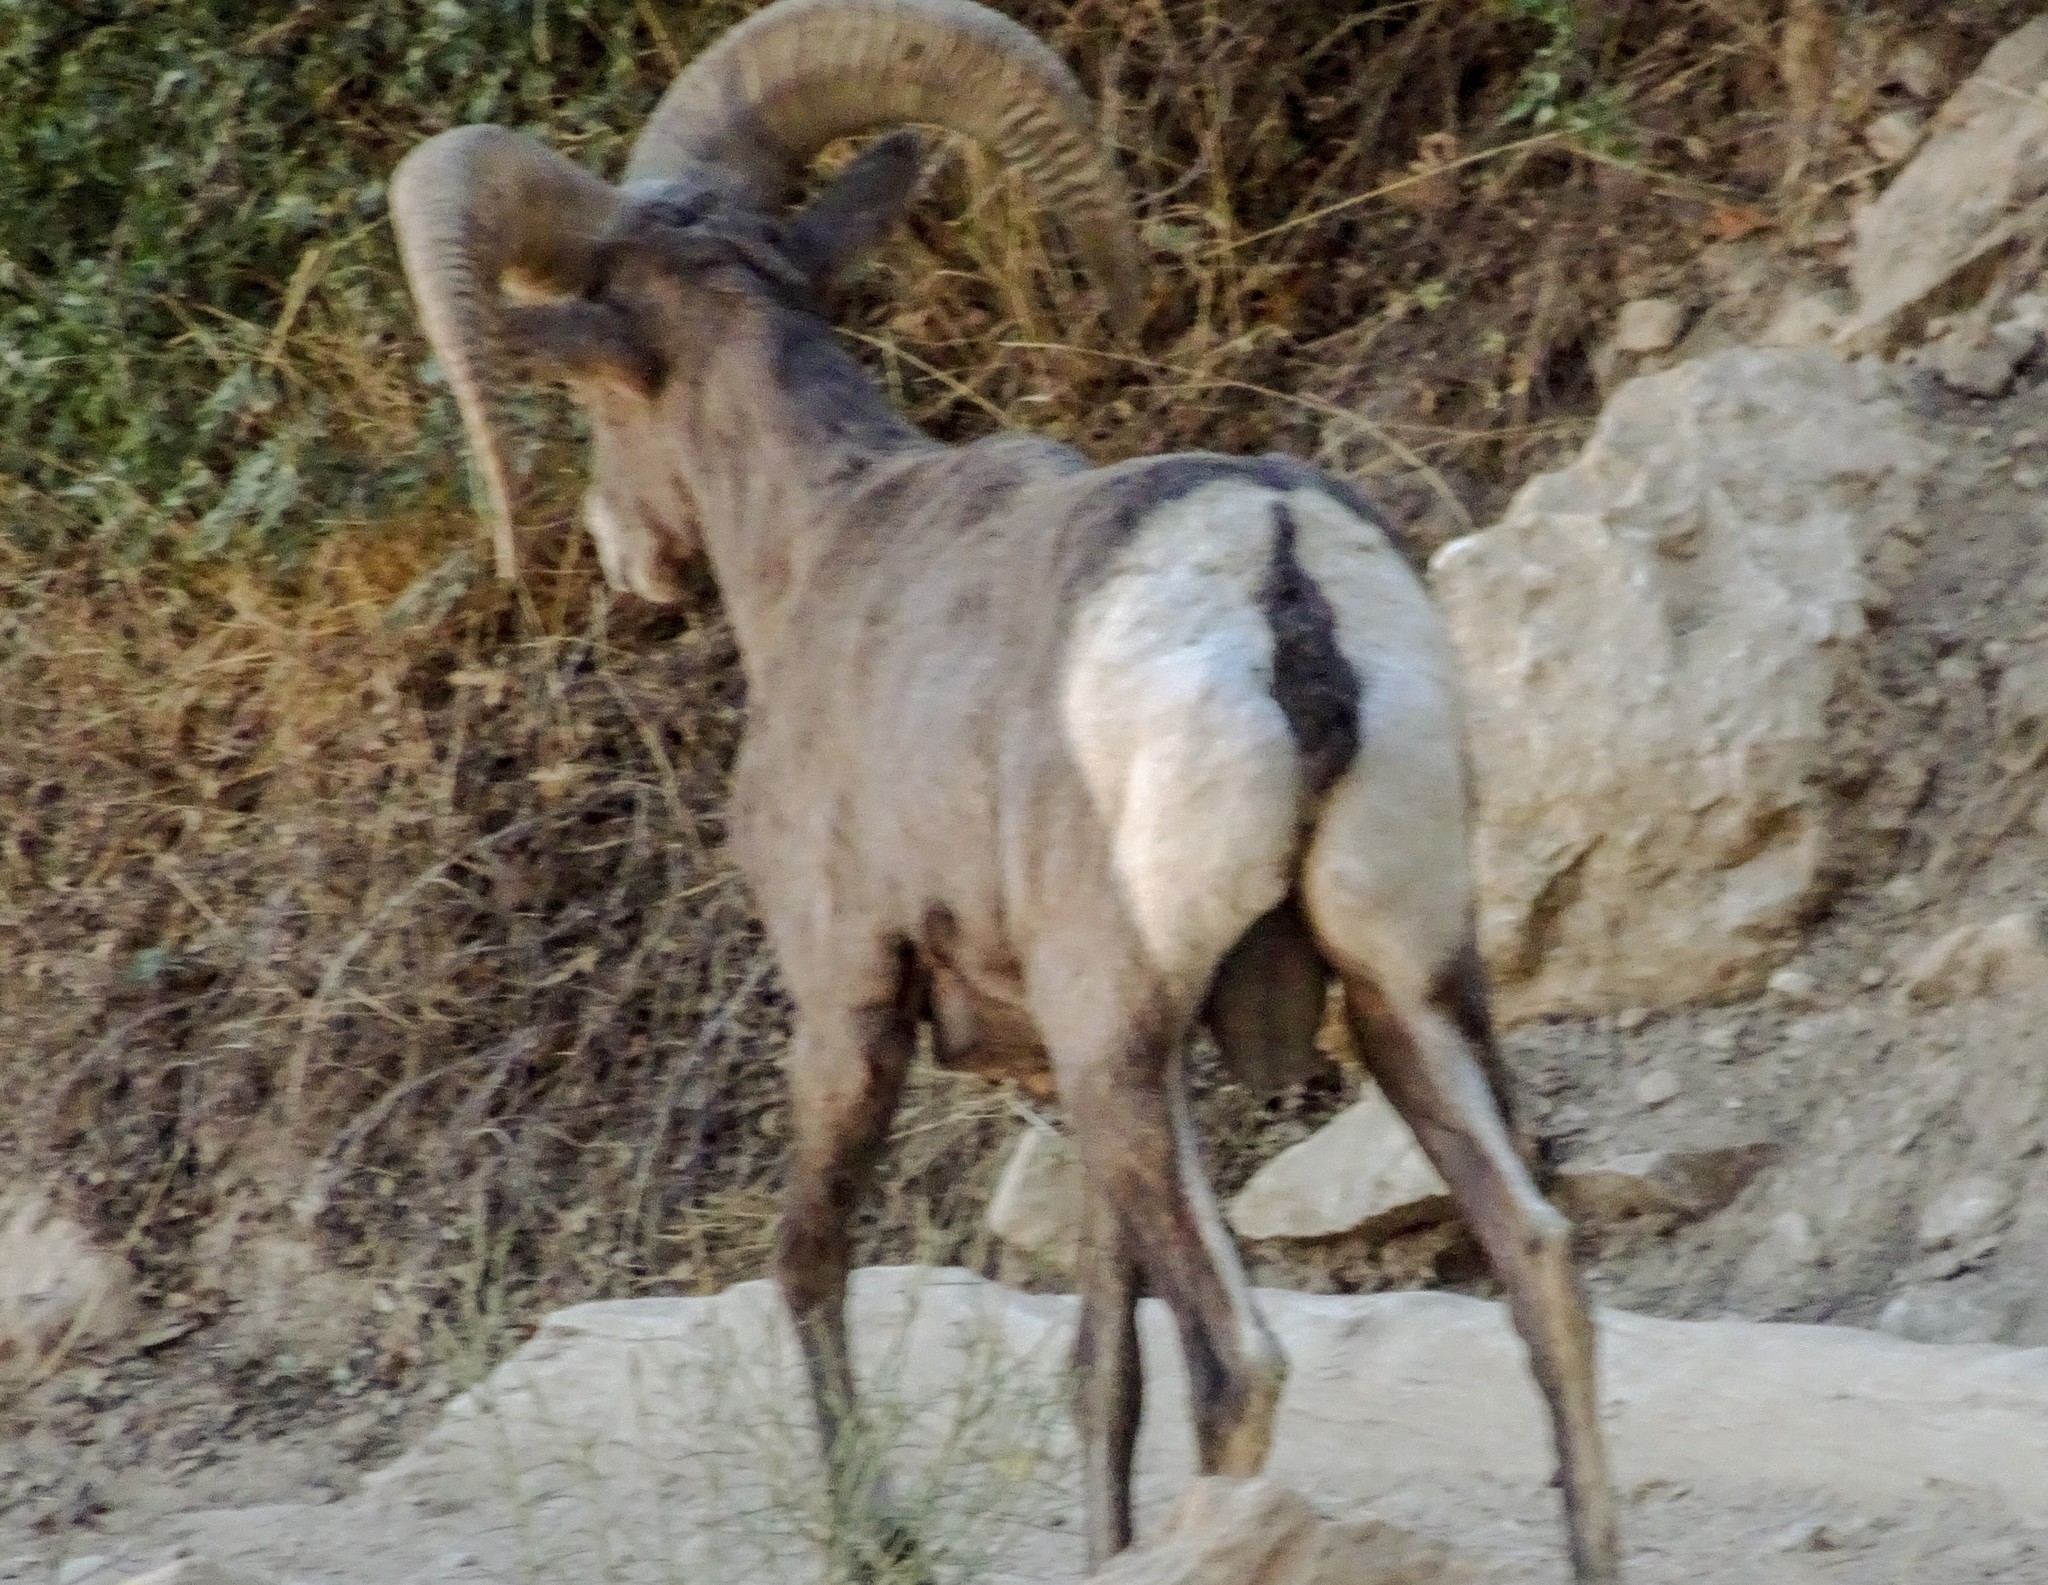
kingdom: Animalia
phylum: Chordata
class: Mammalia
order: Artiodactyla
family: Bovidae
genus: Ovis
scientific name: Ovis canadensis
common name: Bighorn sheep
